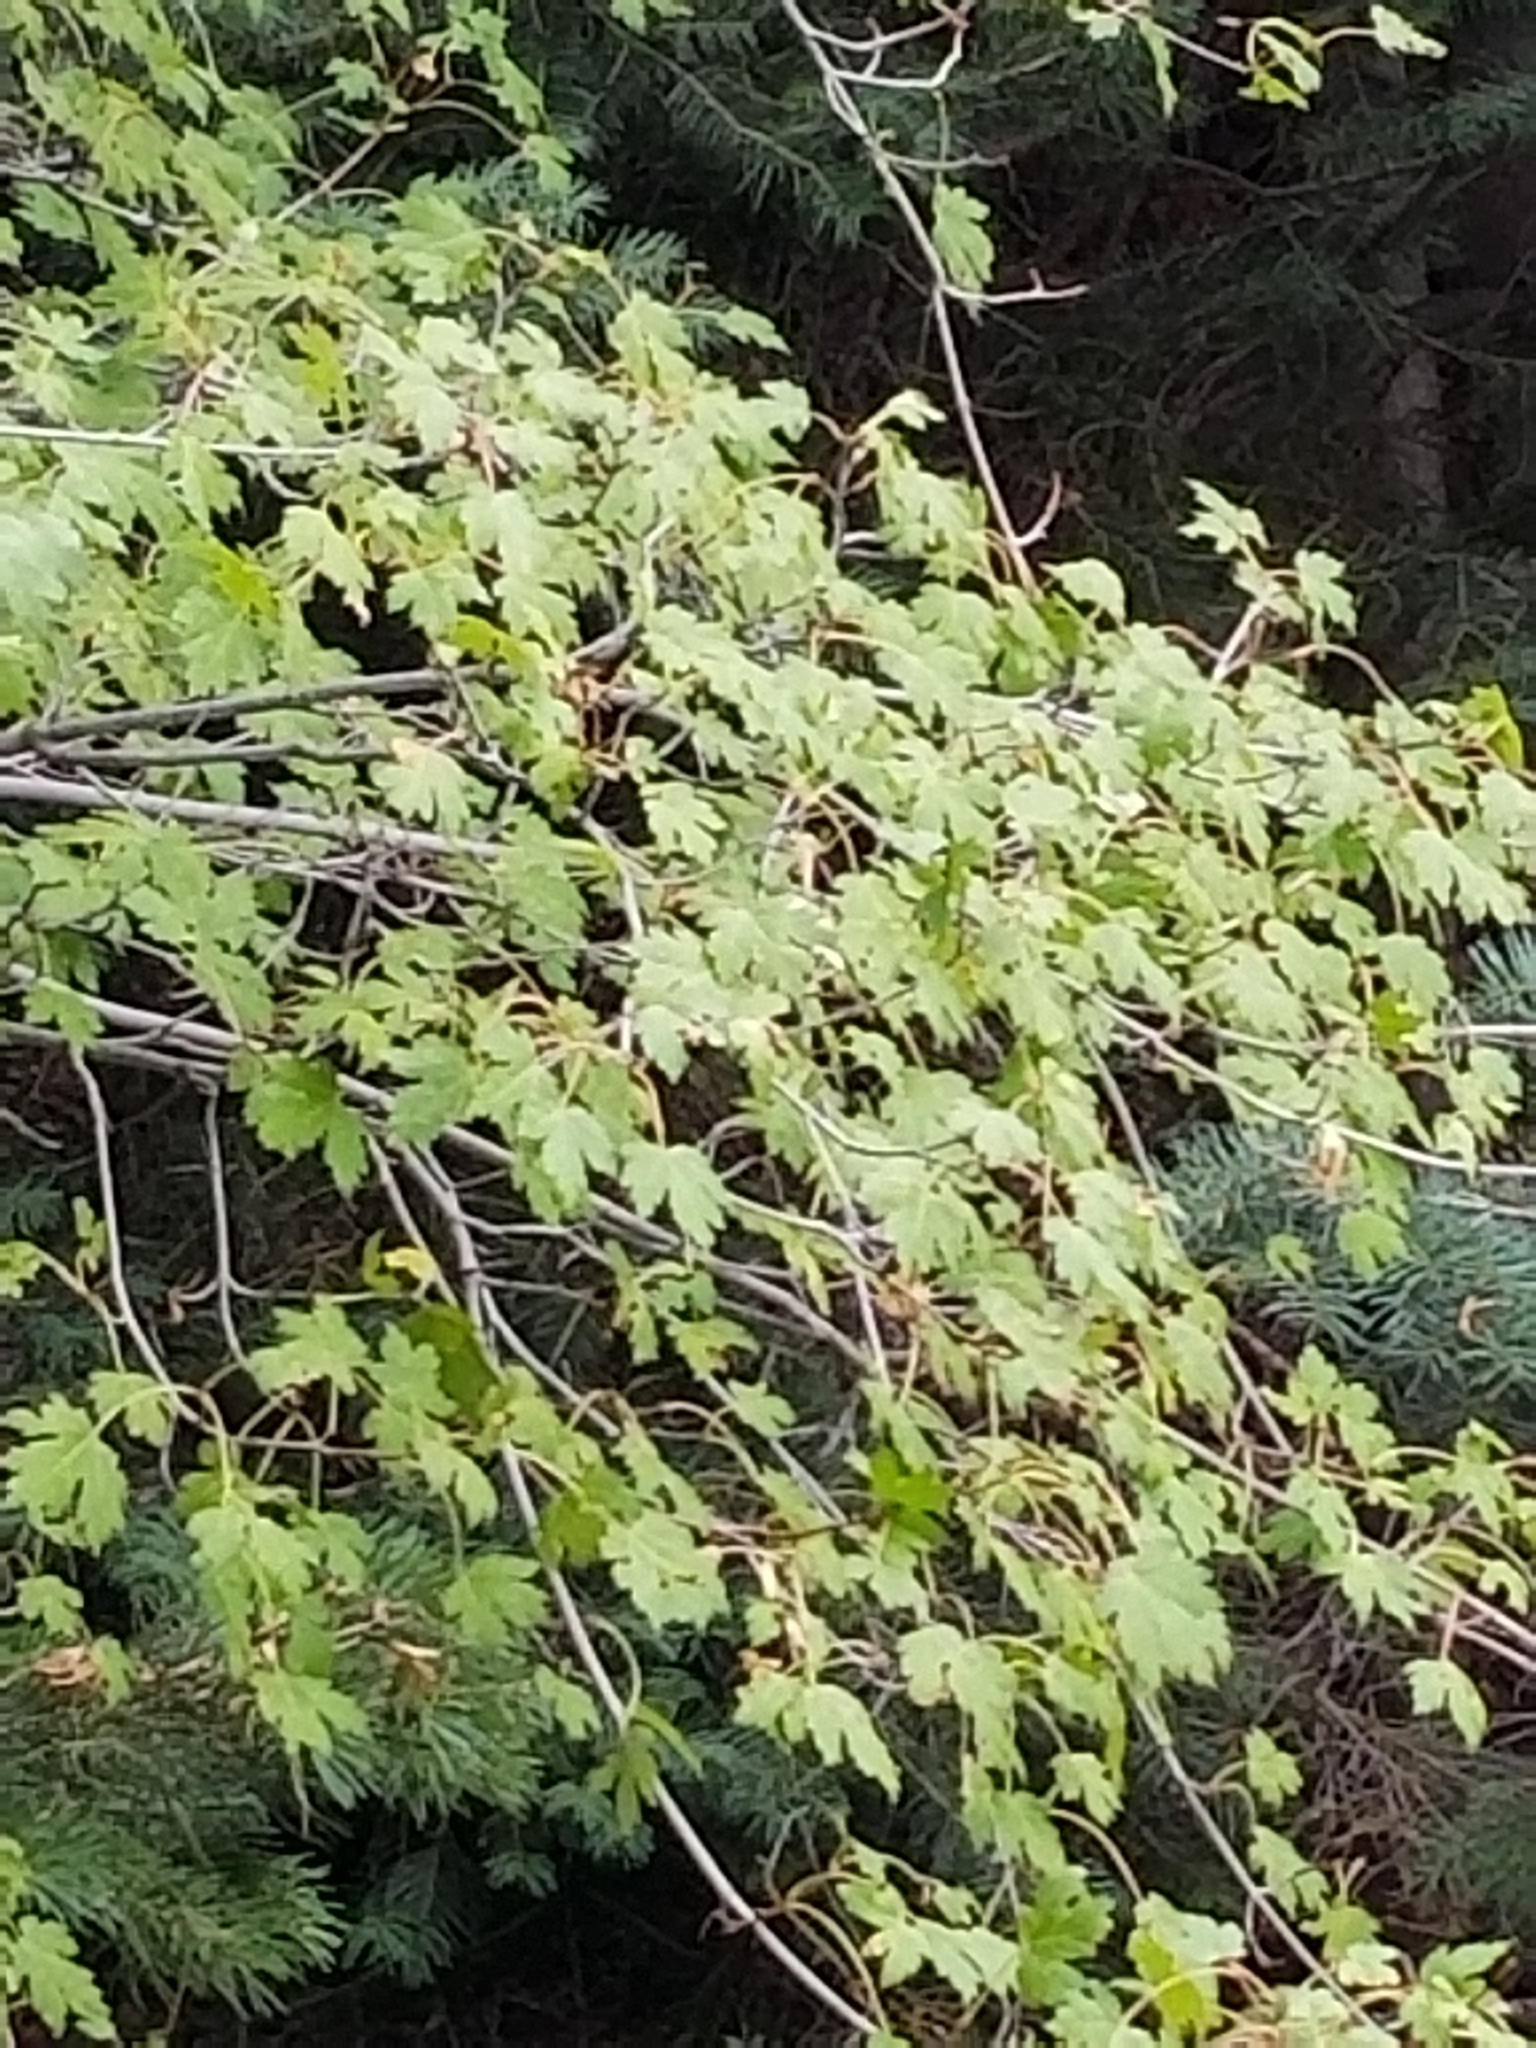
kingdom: Plantae
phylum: Tracheophyta
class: Magnoliopsida
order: Sapindales
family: Sapindaceae
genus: Acer
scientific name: Acer glabrum
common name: Rocky mountain maple
